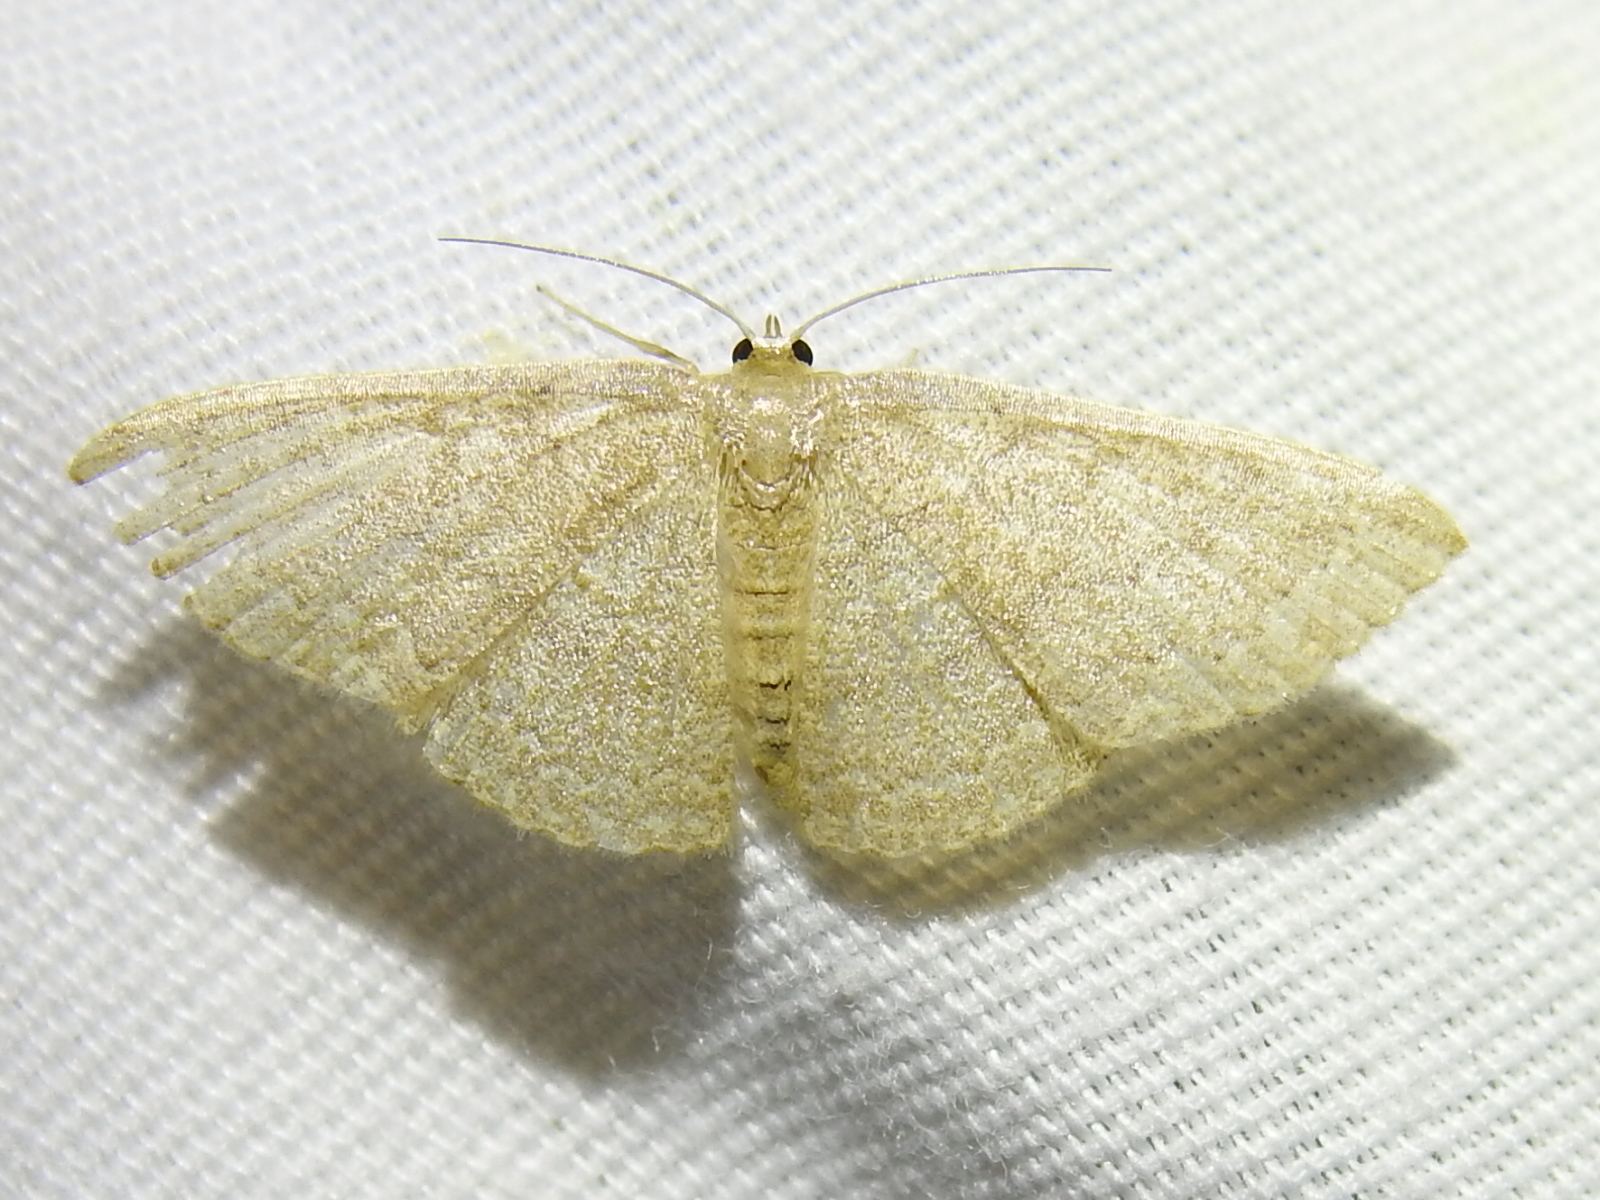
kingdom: Animalia
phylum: Arthropoda
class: Insecta
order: Lepidoptera
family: Geometridae
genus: Pleuroprucha
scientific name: Pleuroprucha insulsaria
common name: Common tan wave
